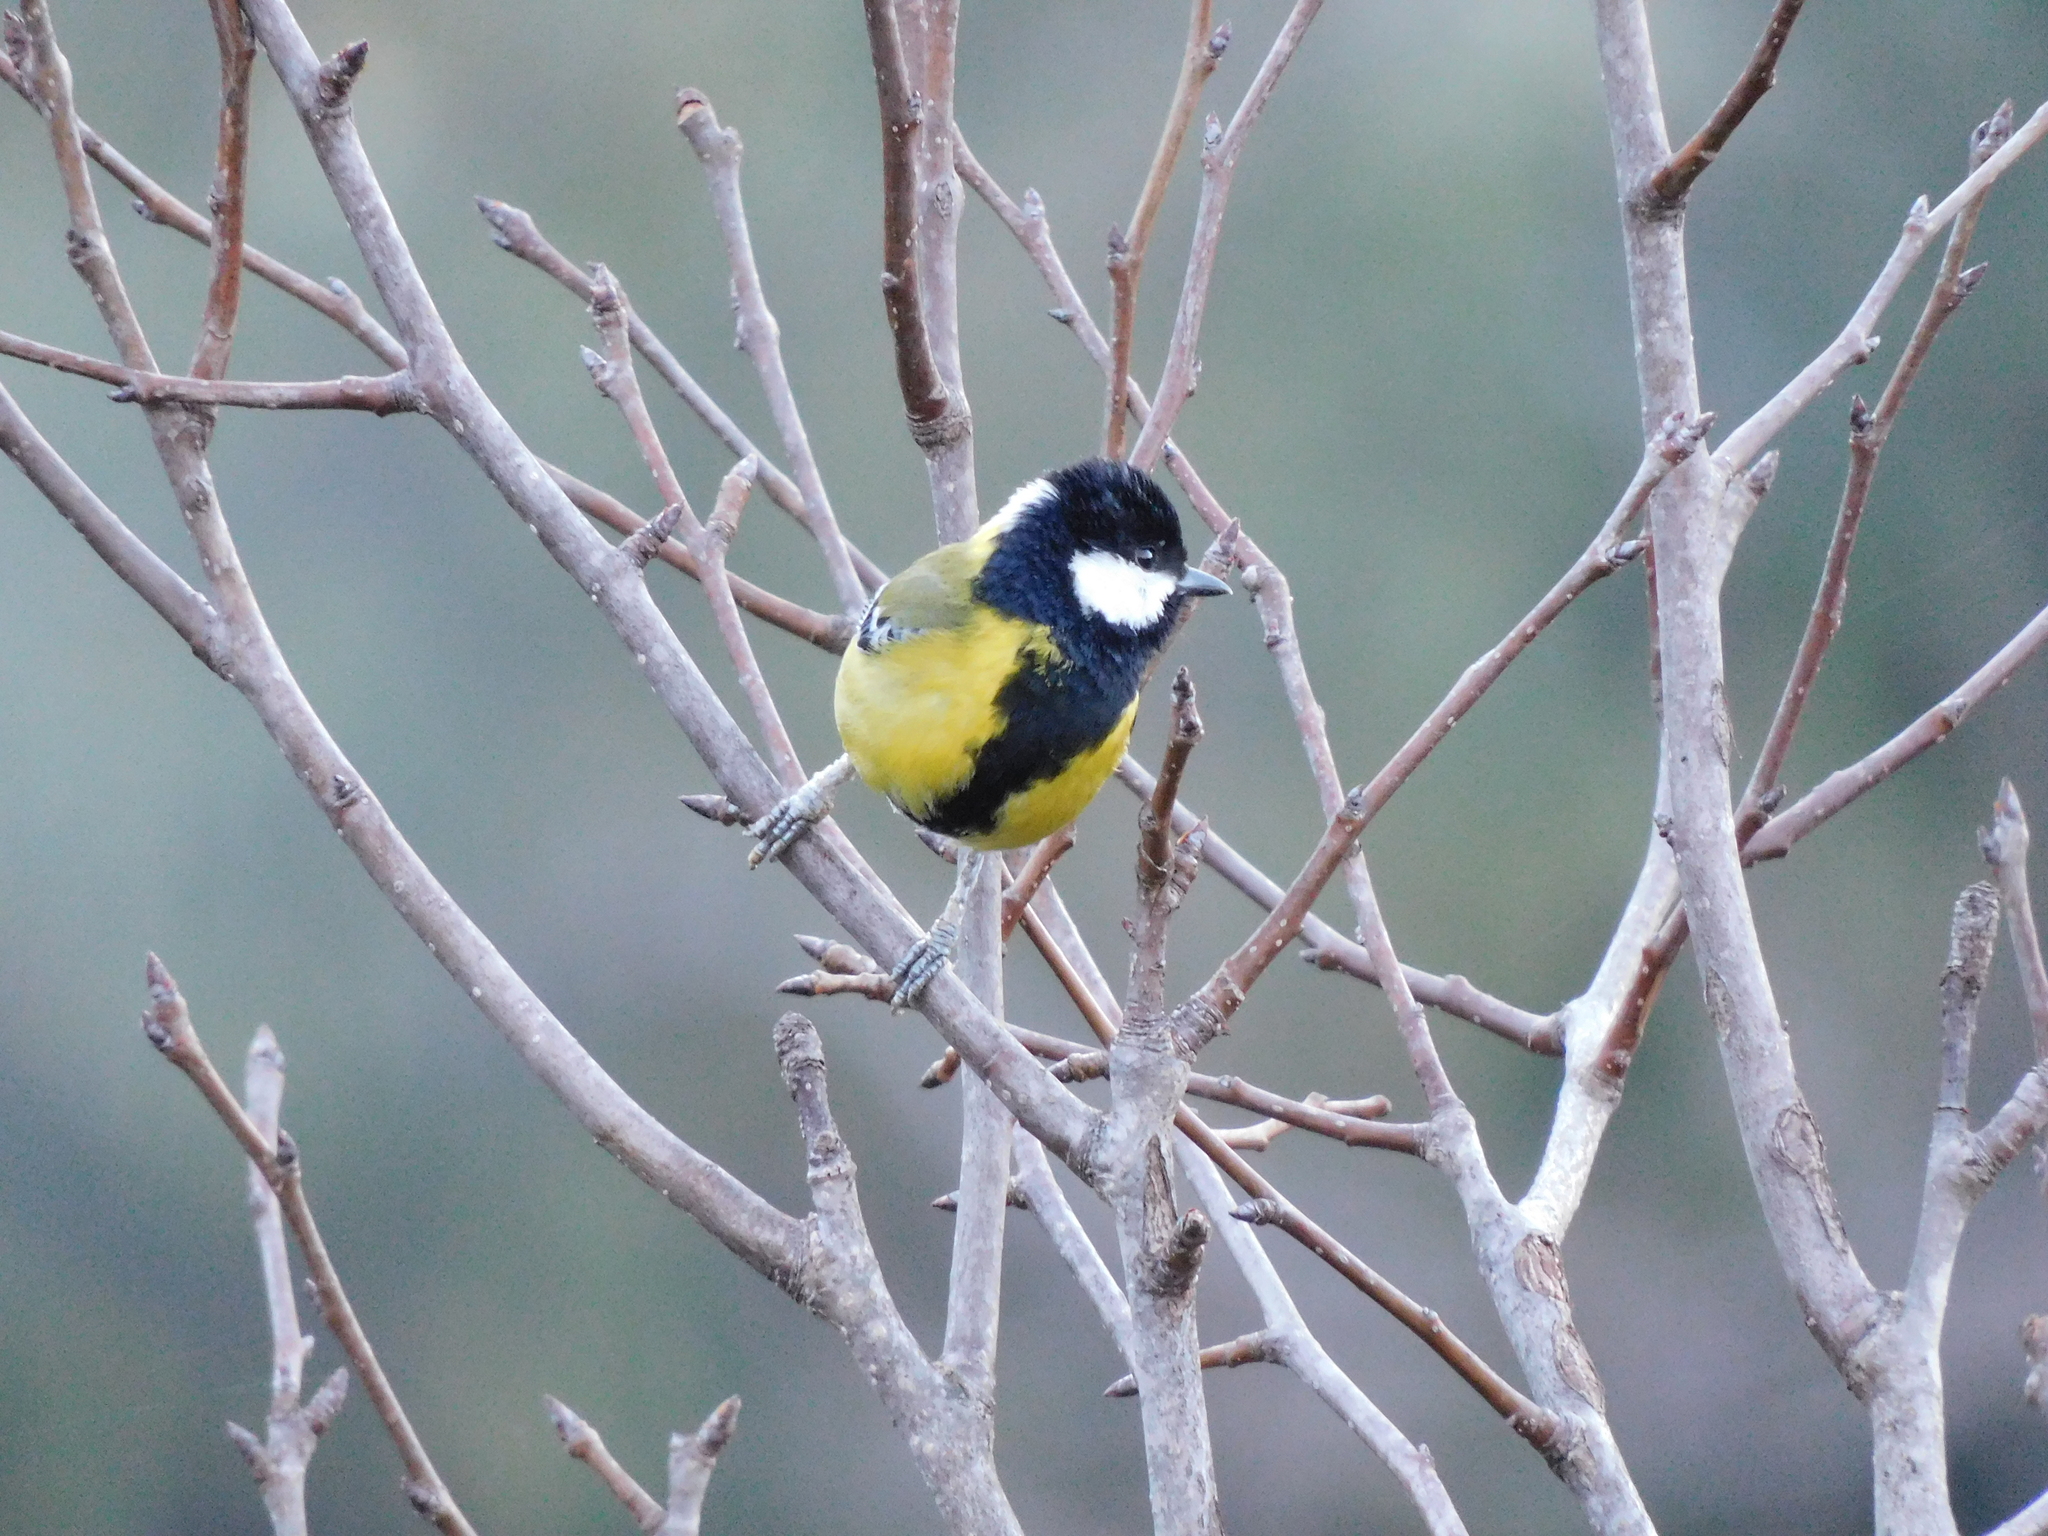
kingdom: Animalia
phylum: Chordata
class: Aves
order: Passeriformes
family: Paridae
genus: Parus
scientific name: Parus monticolus
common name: Green-backed tit
